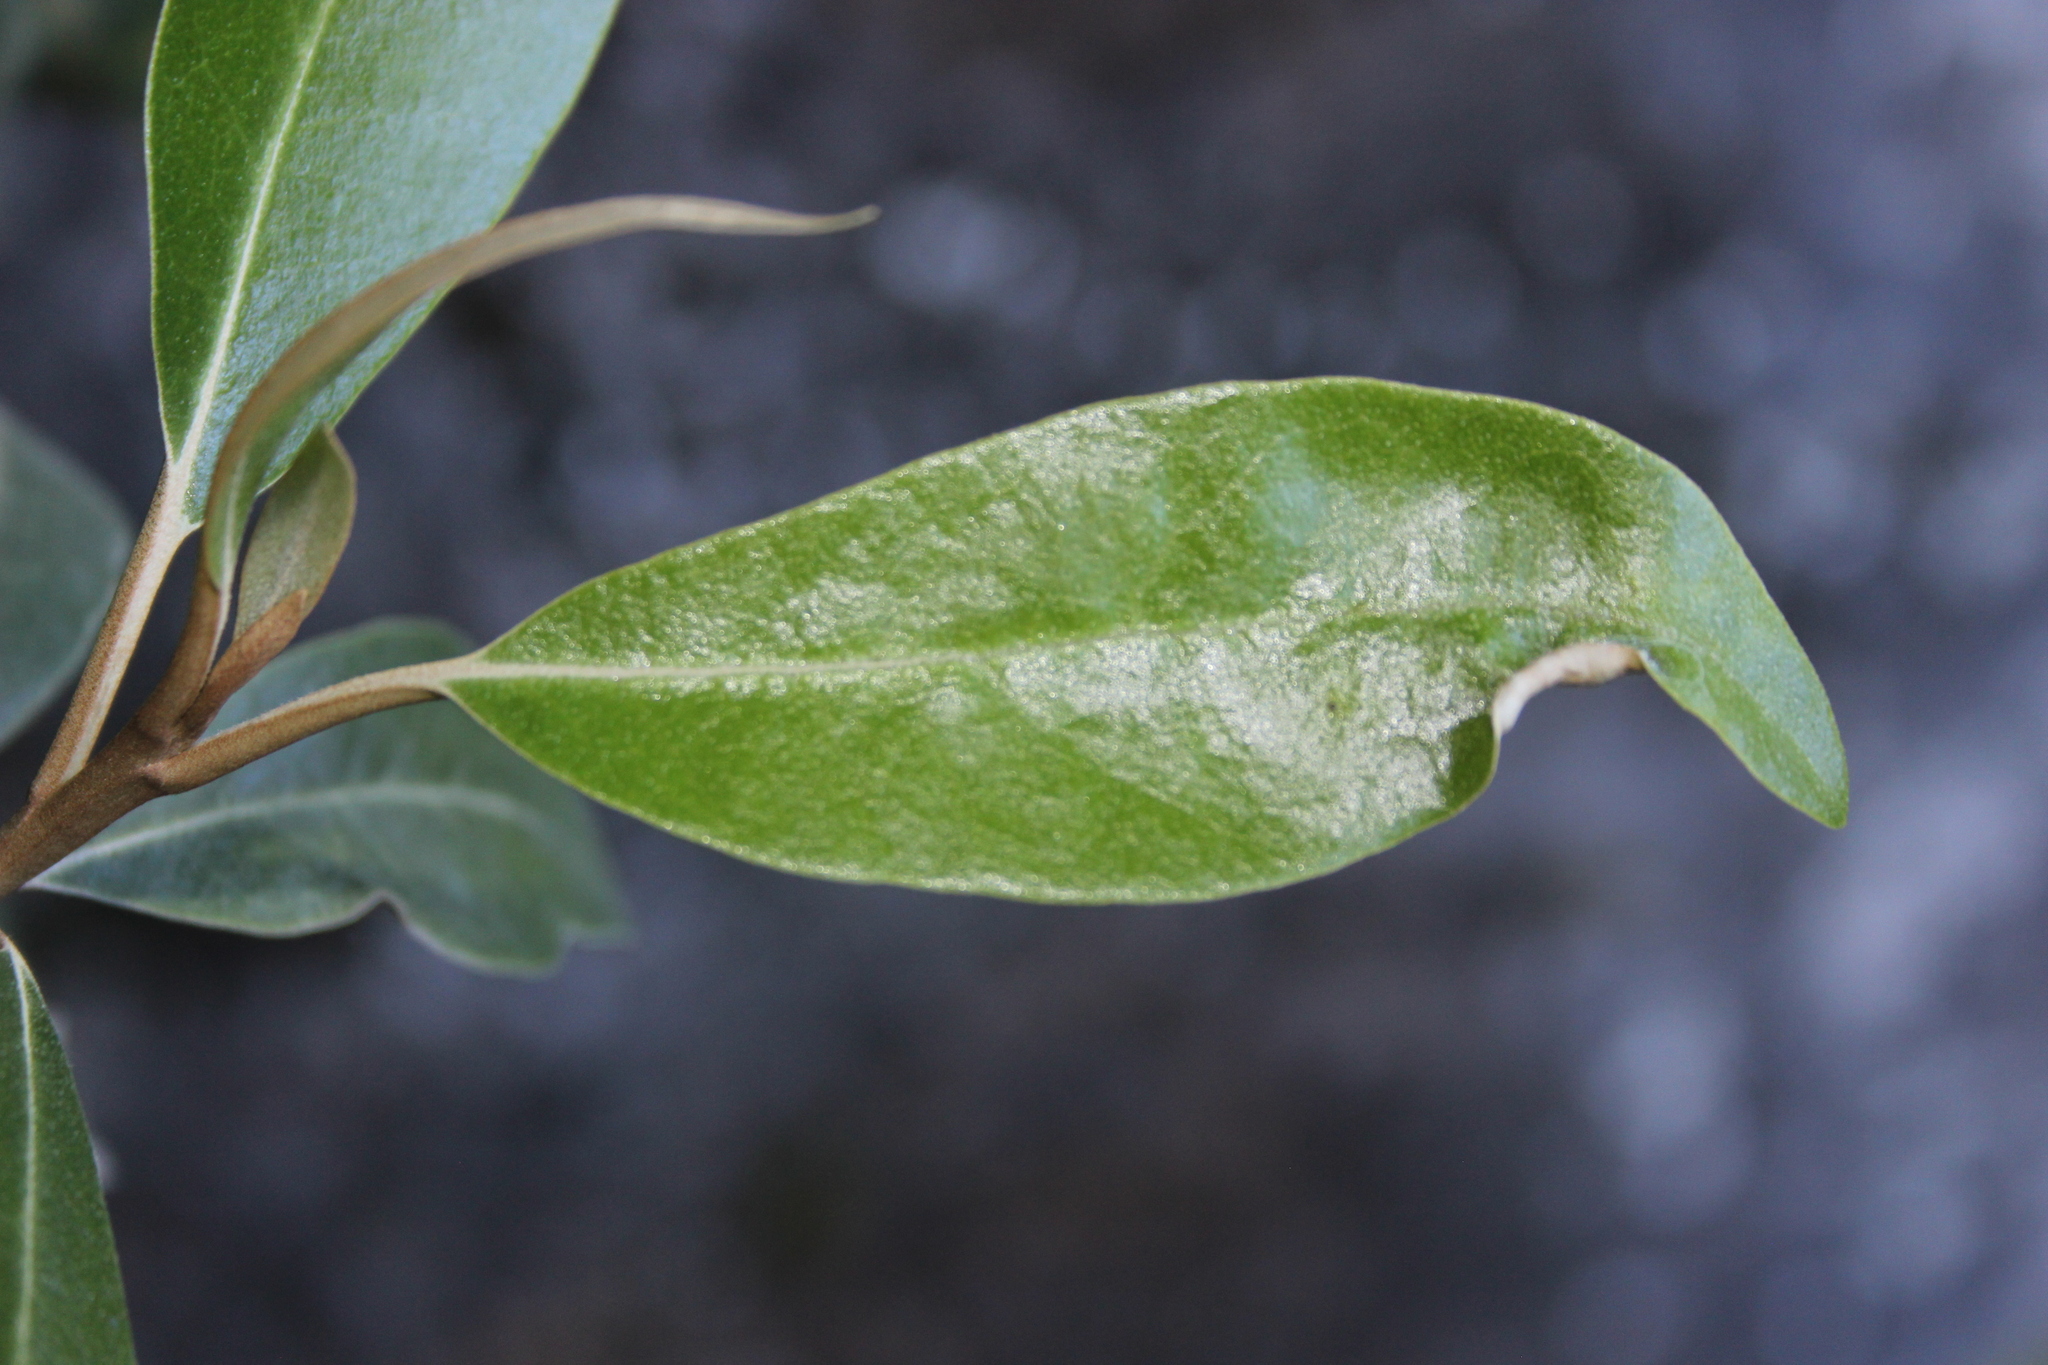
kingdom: Plantae
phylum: Tracheophyta
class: Magnoliopsida
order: Asterales
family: Asteraceae
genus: Olearia
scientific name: Olearia avicenniifolia
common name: Mangrove-leaf daisybush
